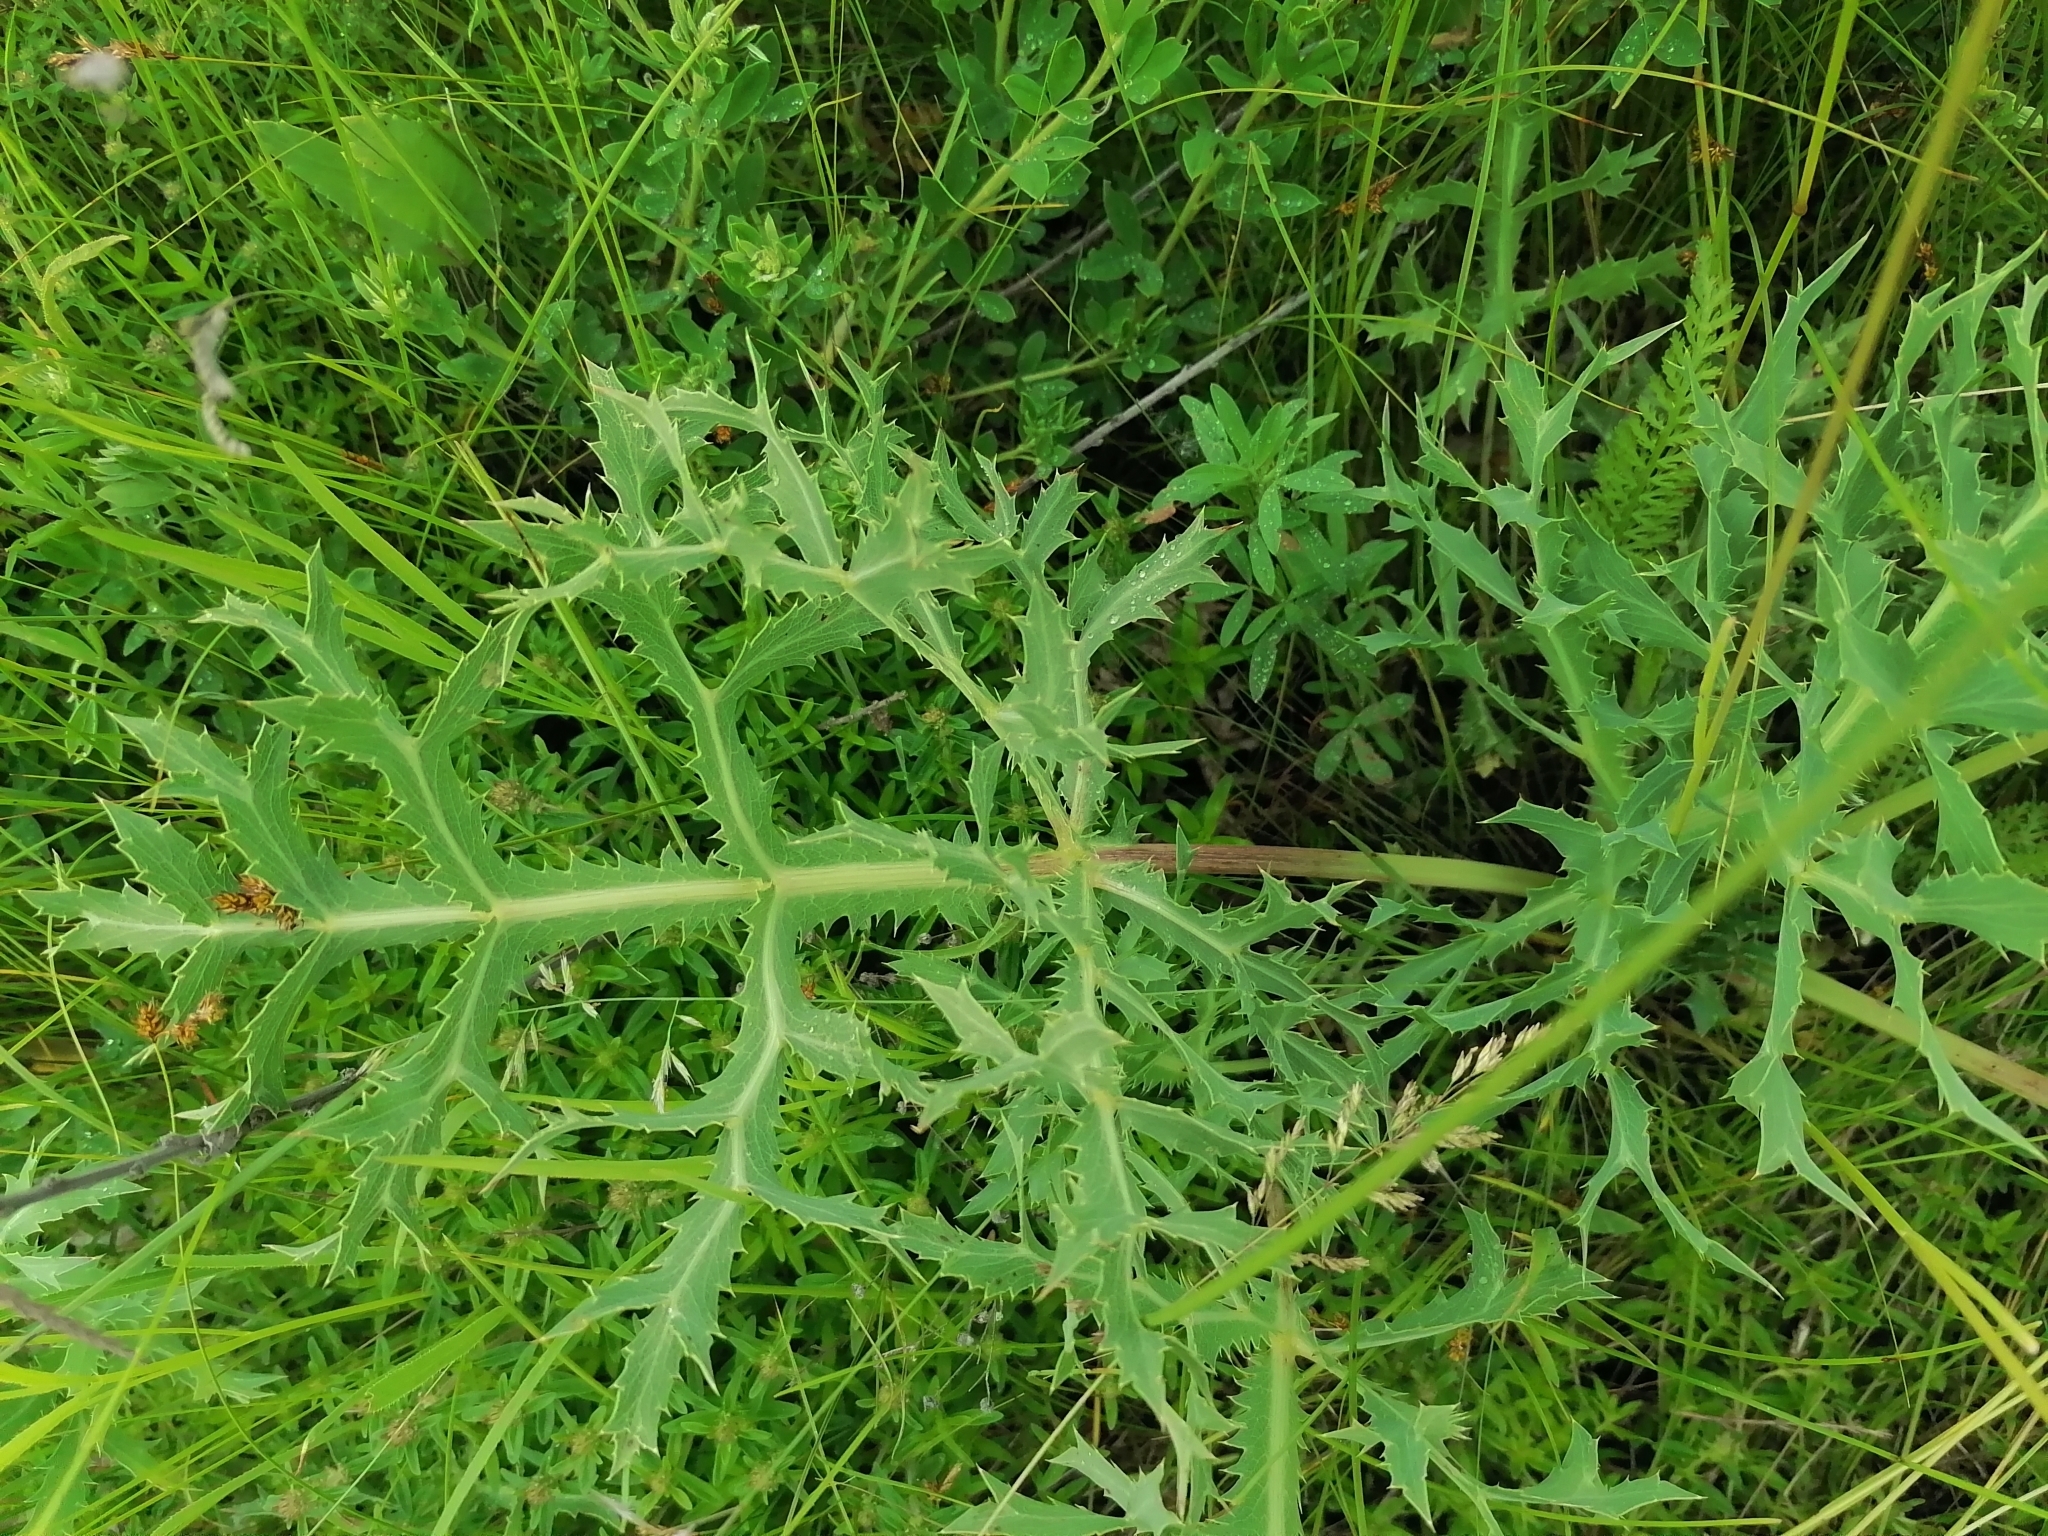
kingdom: Plantae
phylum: Tracheophyta
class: Magnoliopsida
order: Apiales
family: Apiaceae
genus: Eryngium
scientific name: Eryngium campestre
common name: Field eryngo
